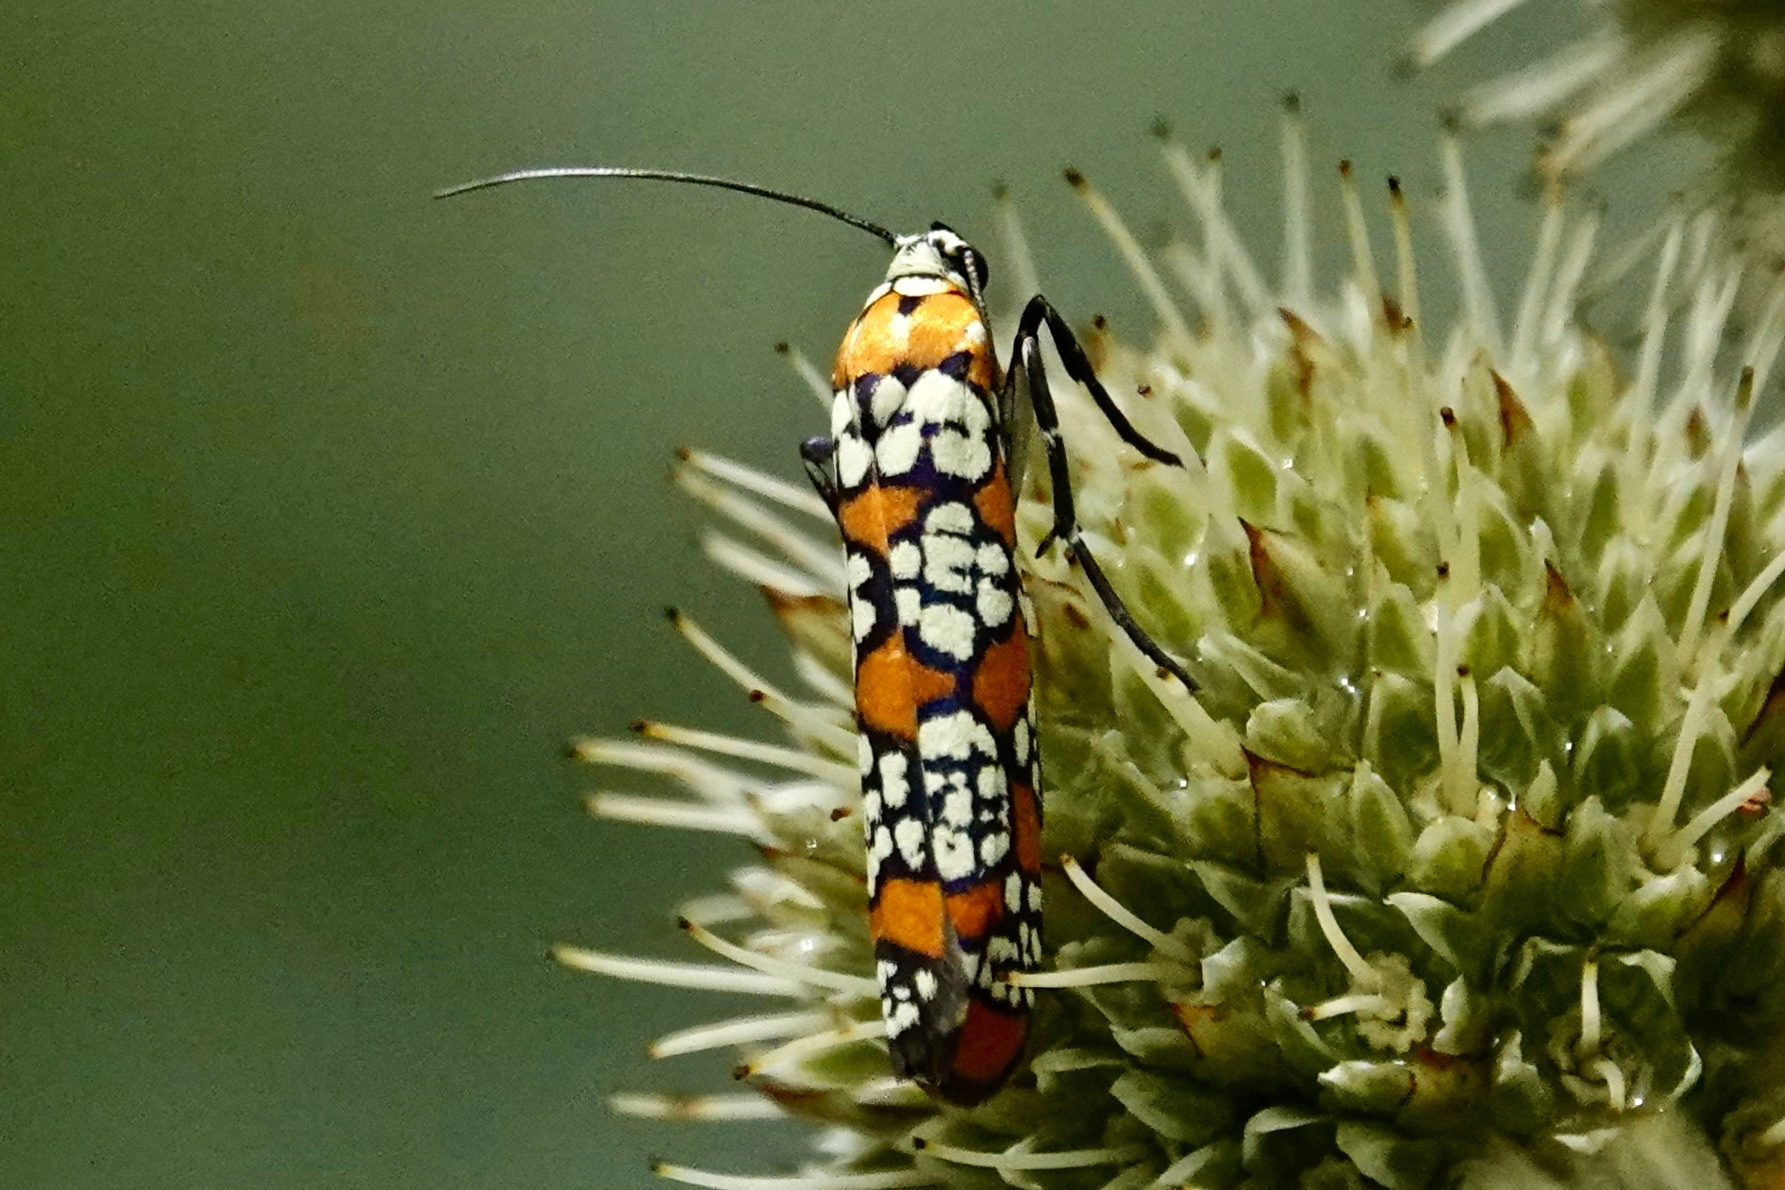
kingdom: Animalia
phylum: Arthropoda
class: Insecta
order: Lepidoptera
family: Attevidae
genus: Atteva
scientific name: Atteva punctella
